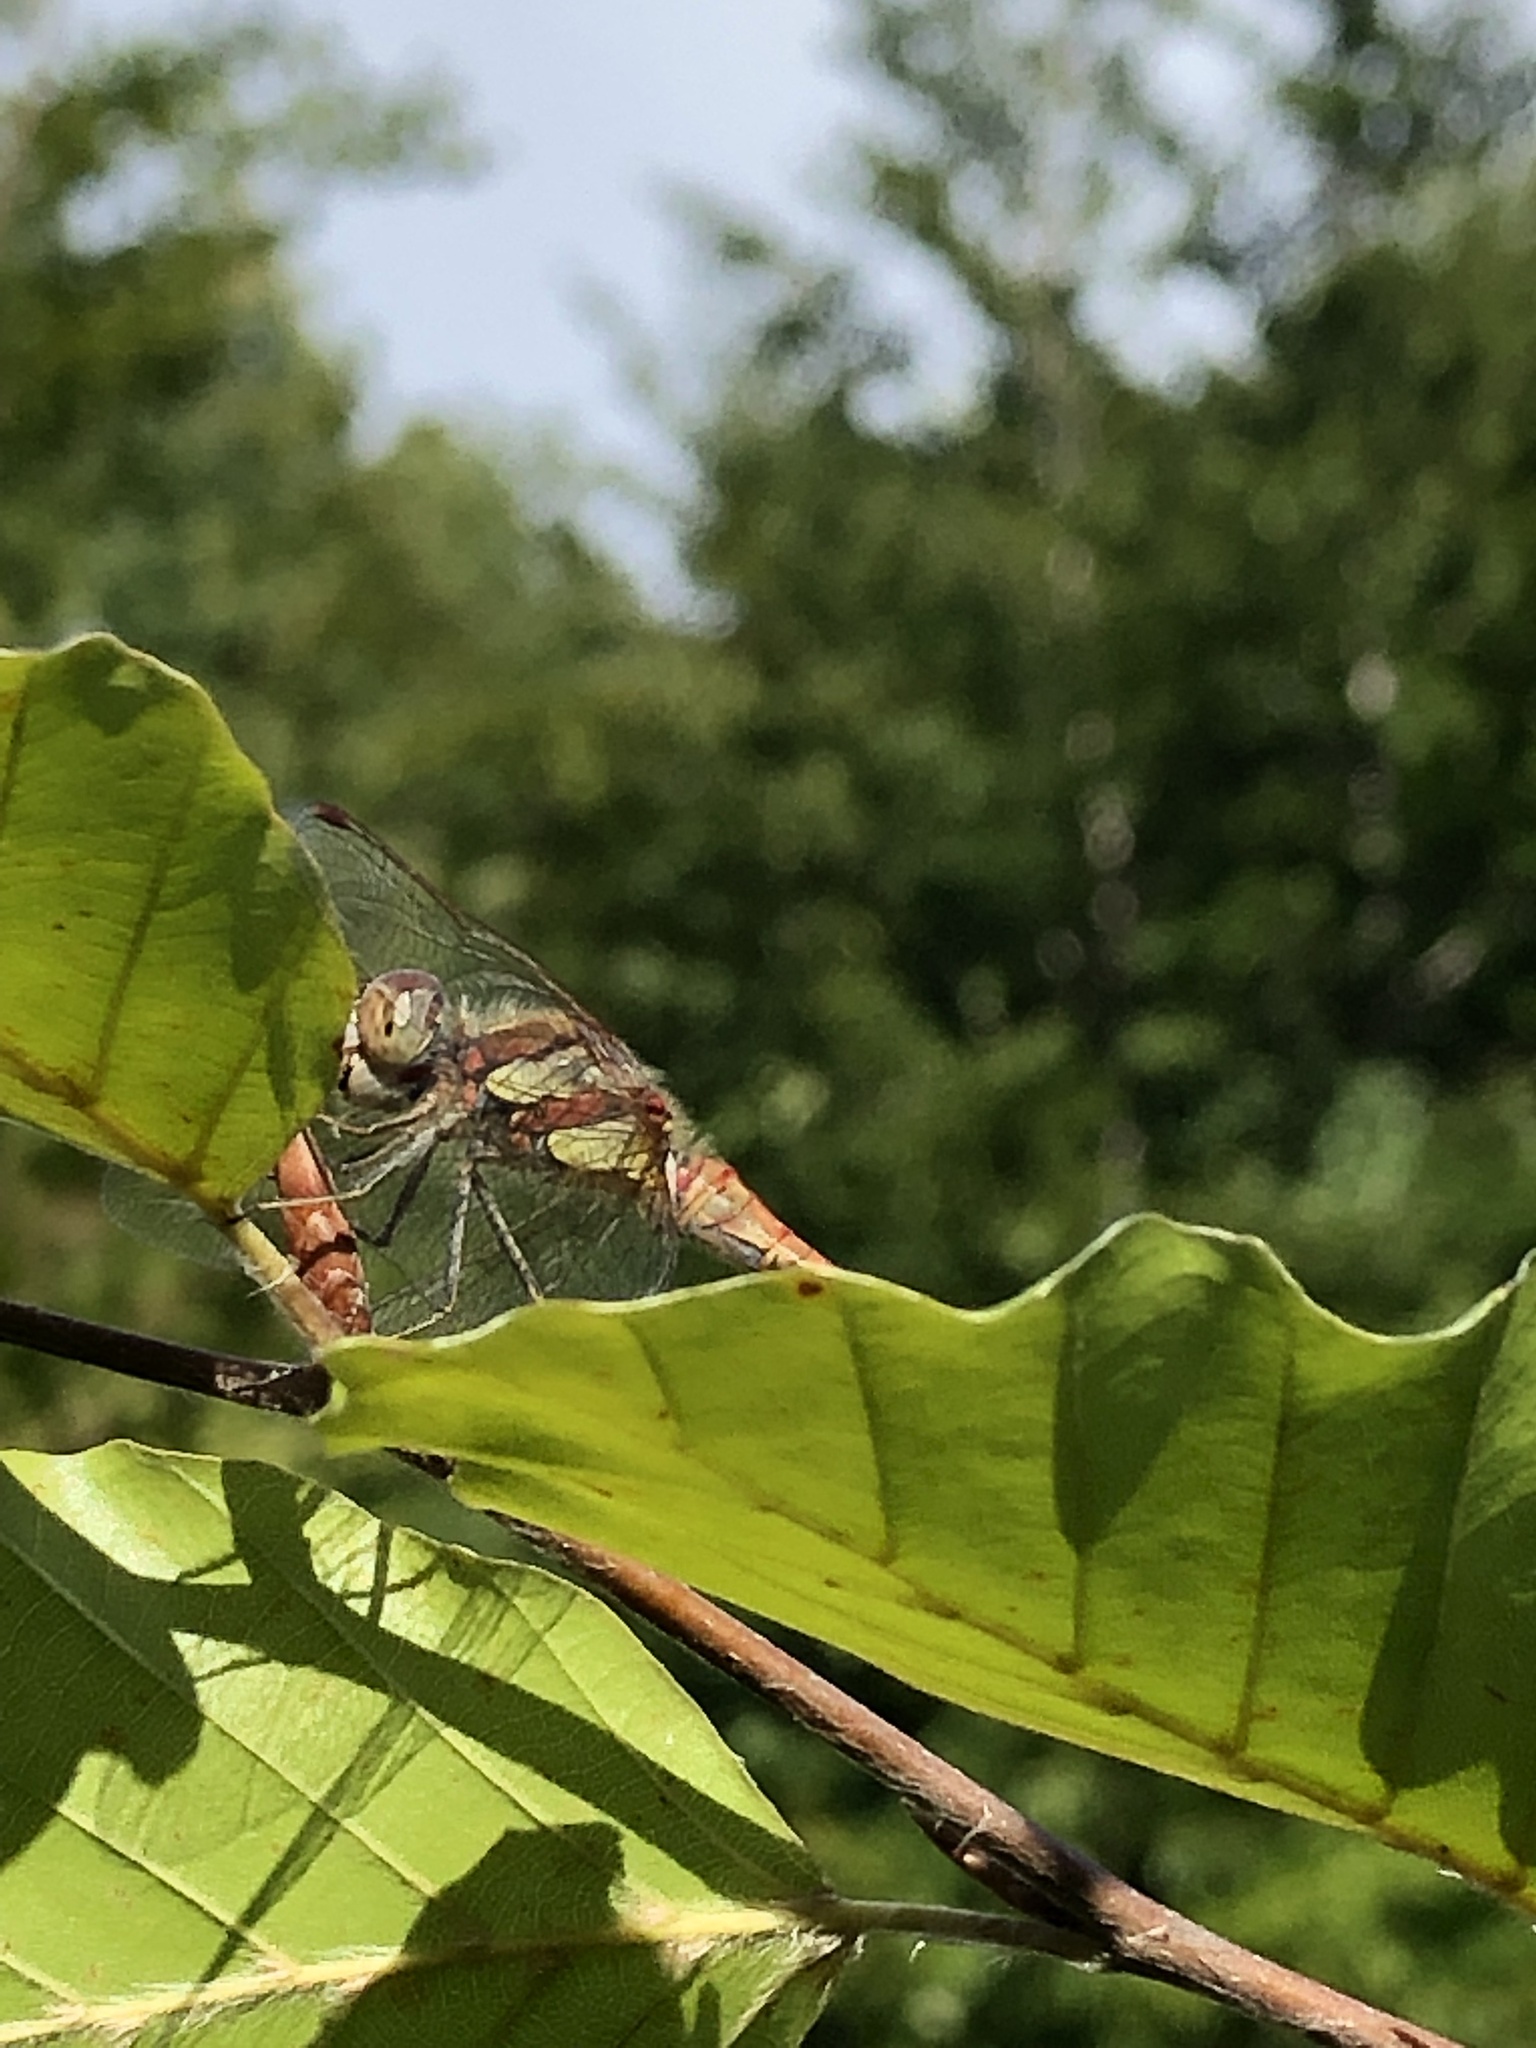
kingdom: Animalia
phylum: Arthropoda
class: Insecta
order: Odonata
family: Libellulidae
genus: Sympetrum
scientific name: Sympetrum striolatum
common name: Common darter
